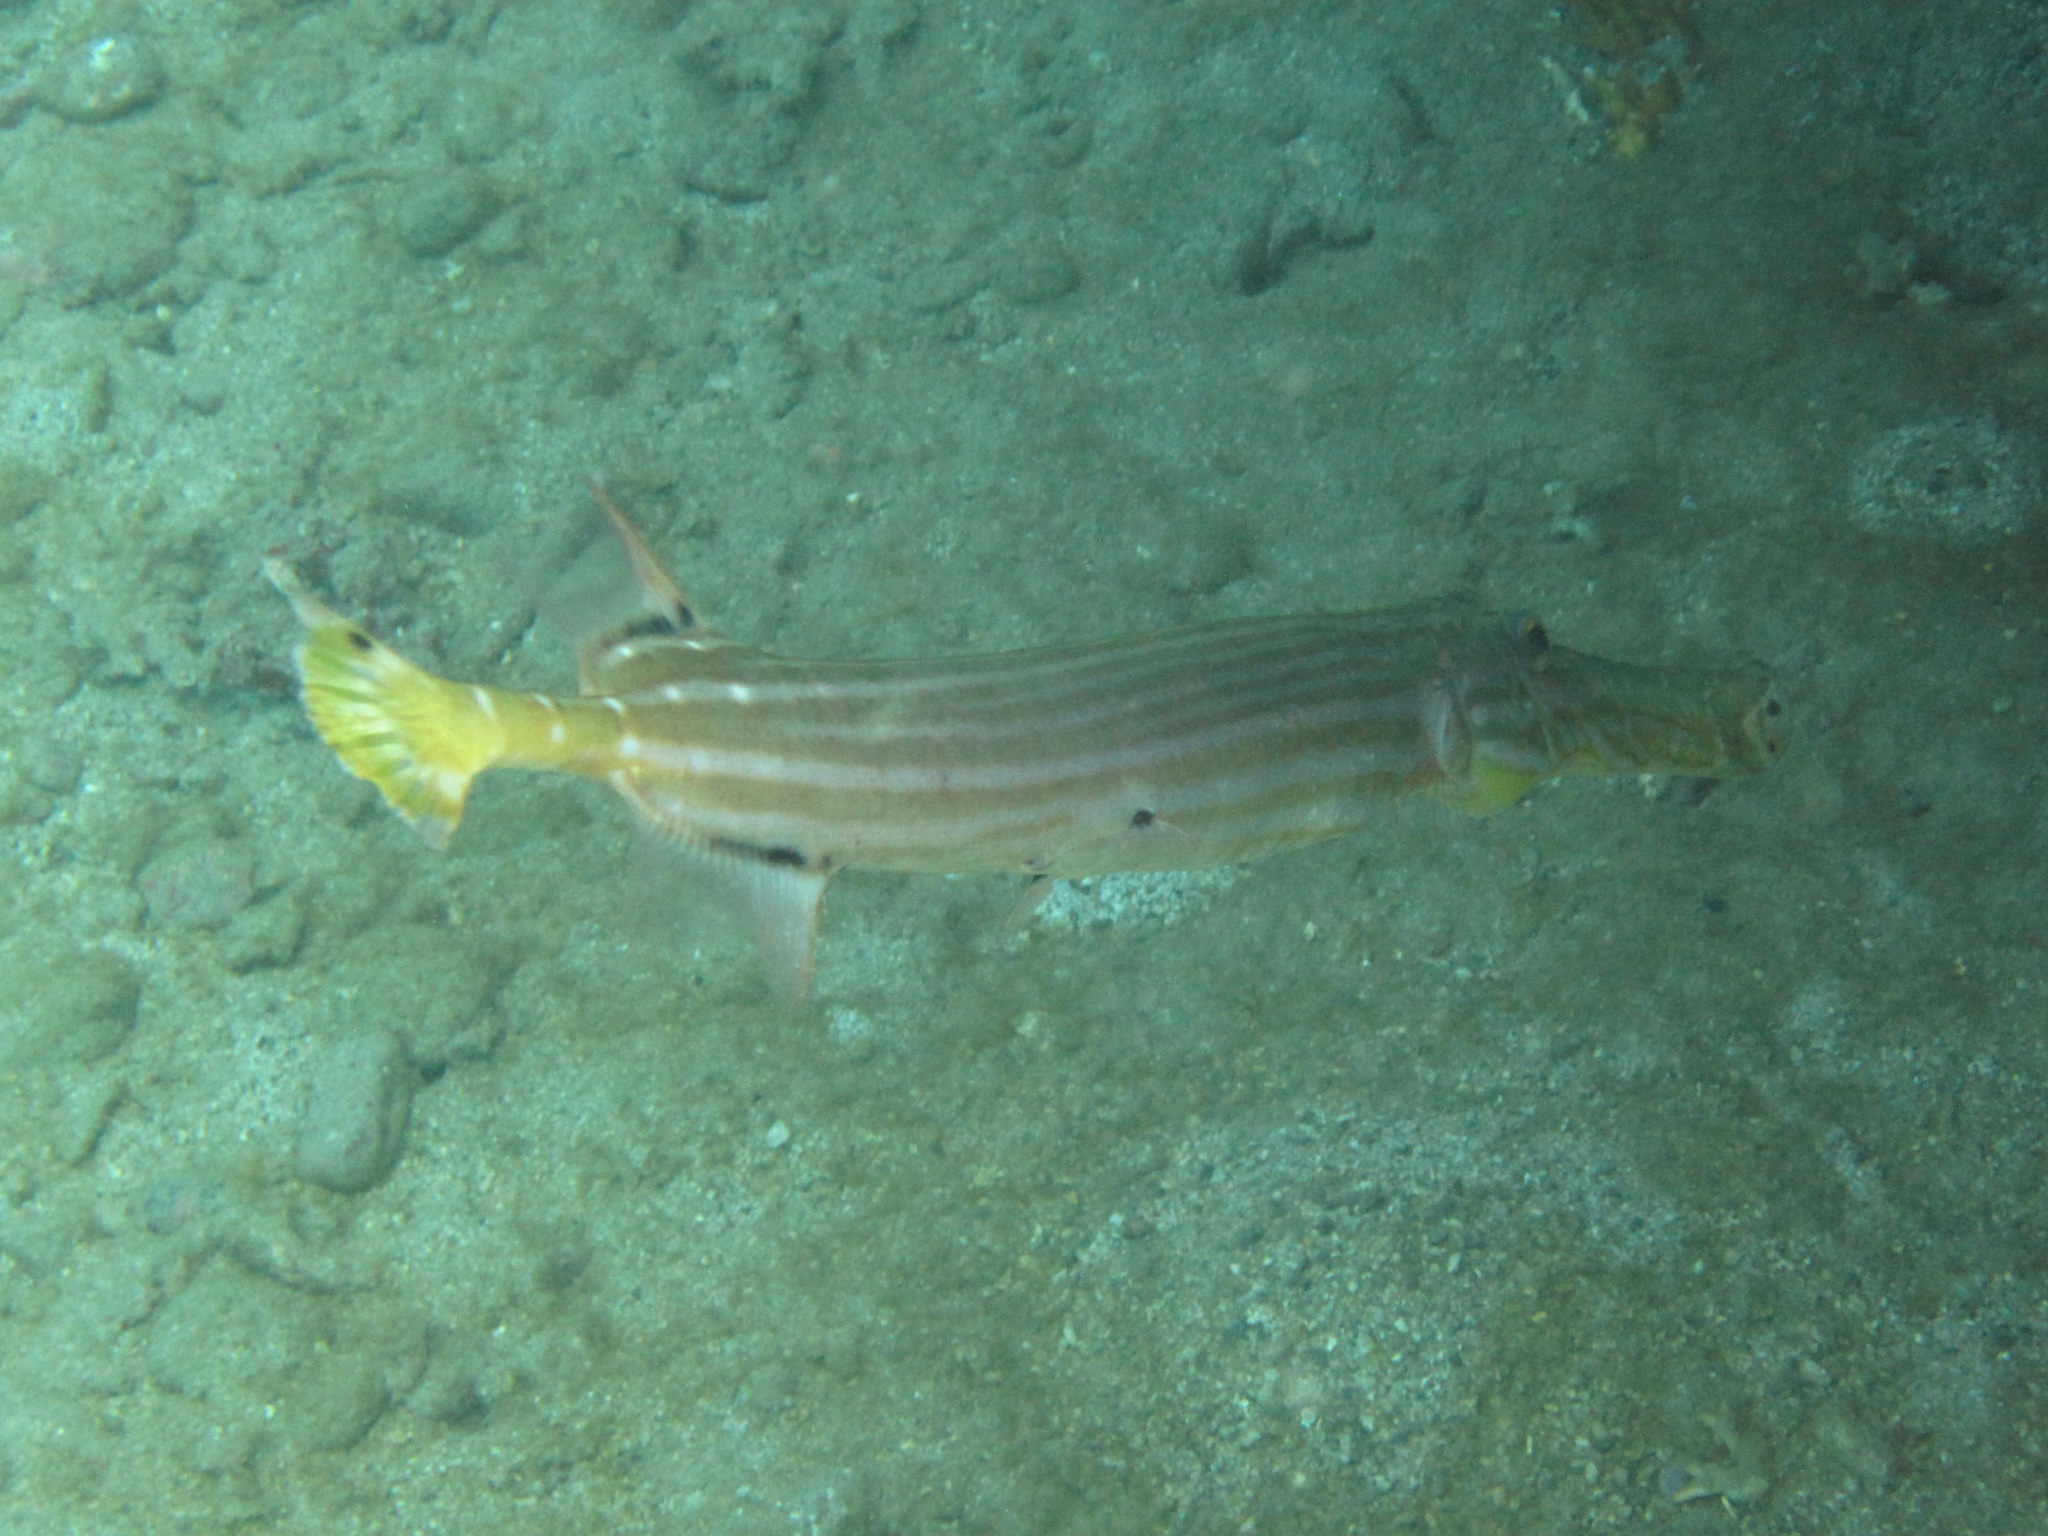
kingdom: Animalia
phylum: Chordata
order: Syngnathiformes
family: Aulostomidae
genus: Aulostomus
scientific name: Aulostomus chinensis
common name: Chinese trumpetfish
